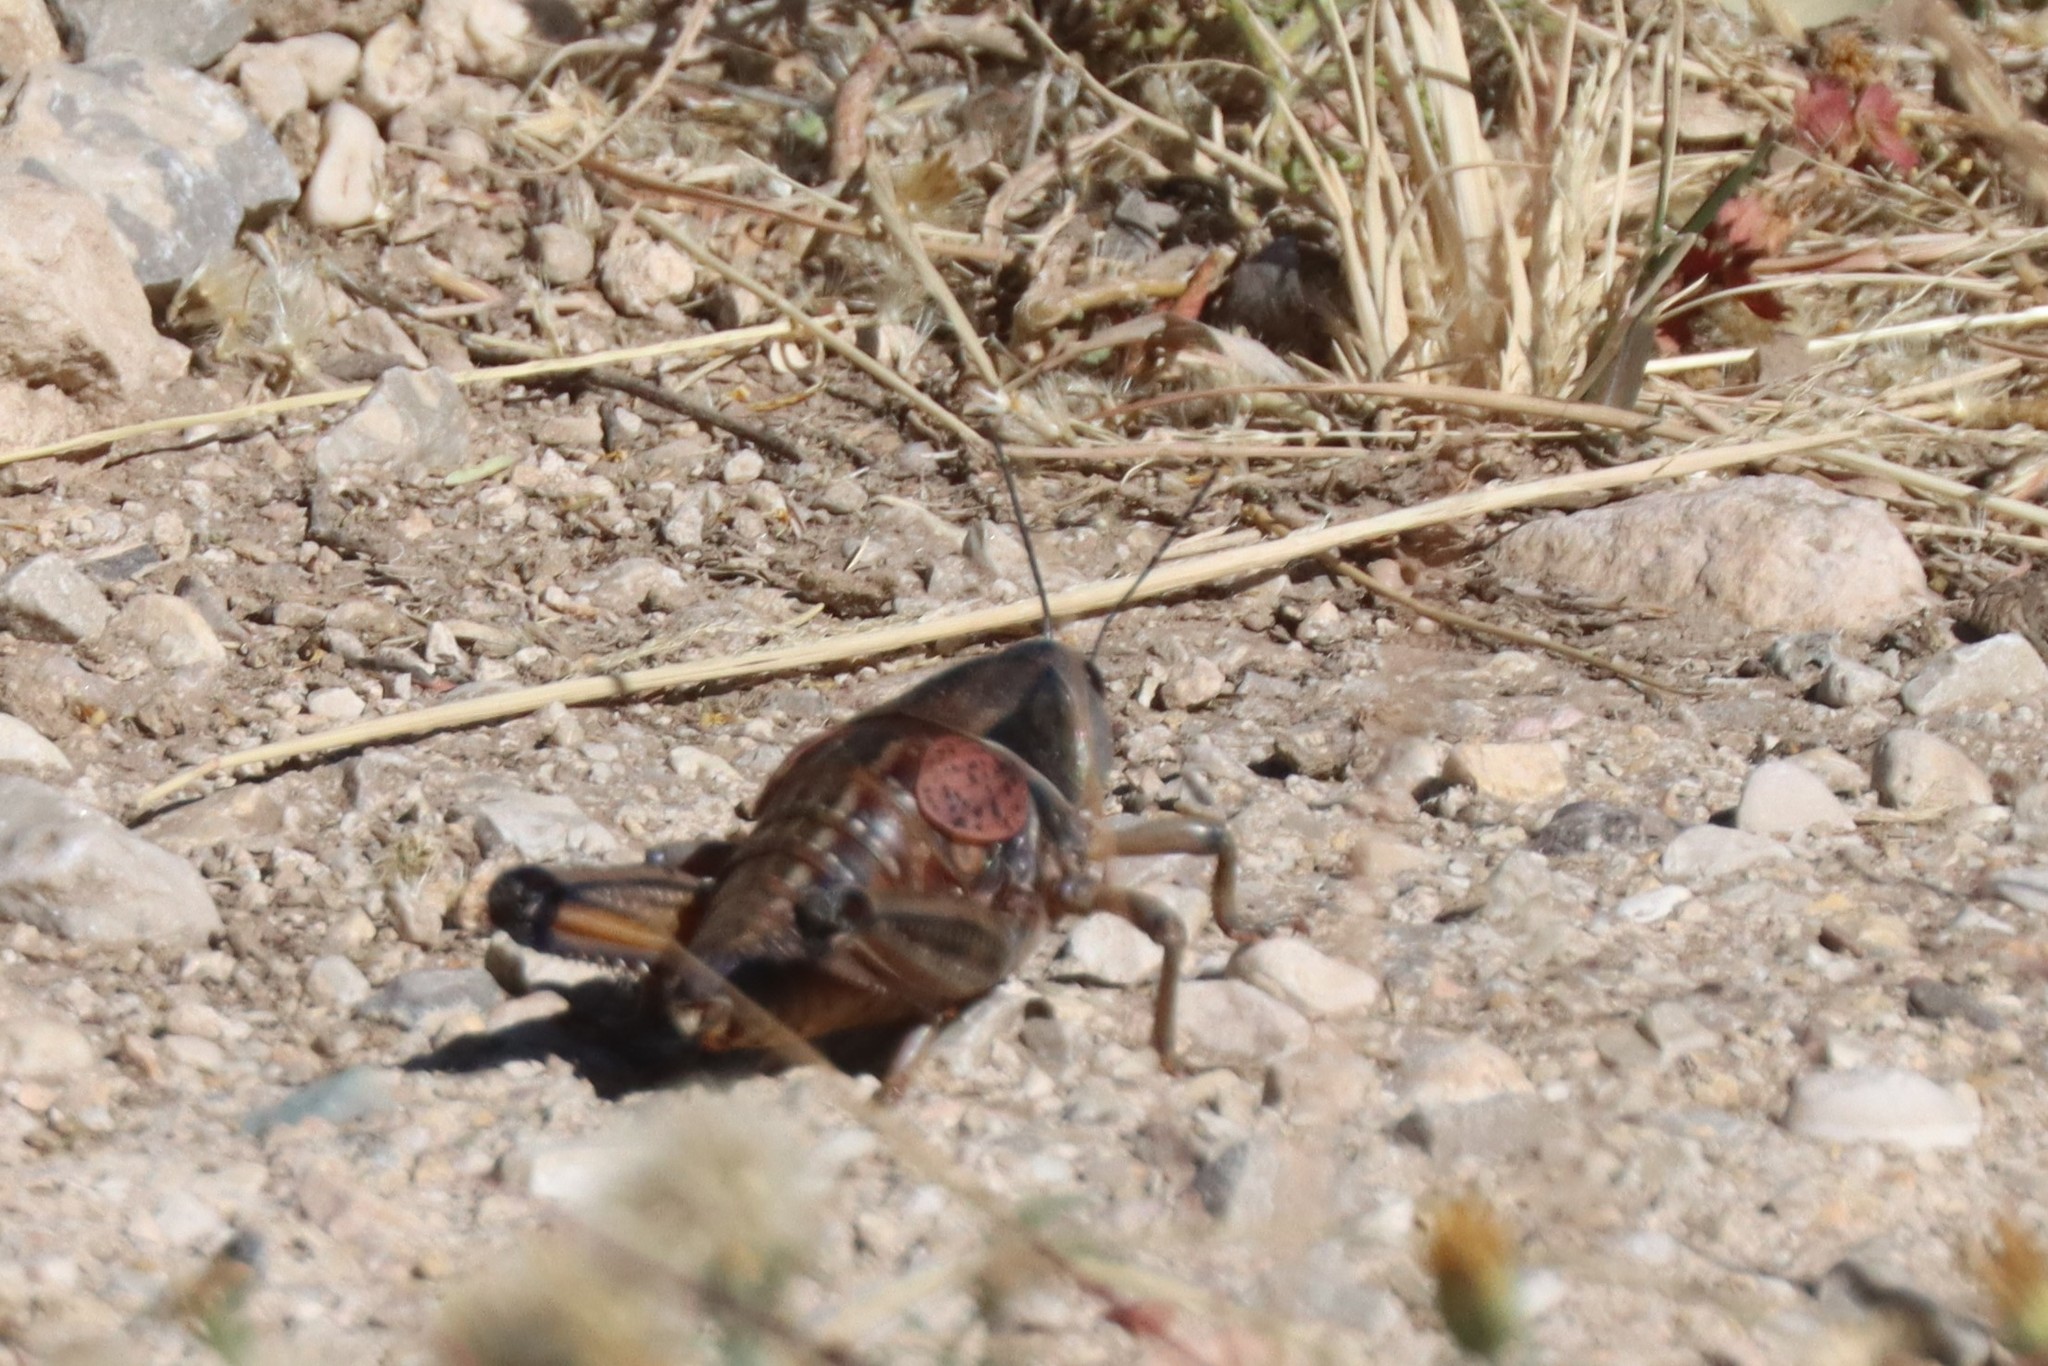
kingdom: Animalia
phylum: Arthropoda
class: Insecta
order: Orthoptera
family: Romaleidae
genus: Brachystola
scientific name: Brachystola magna
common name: Plains lubber grasshopper
